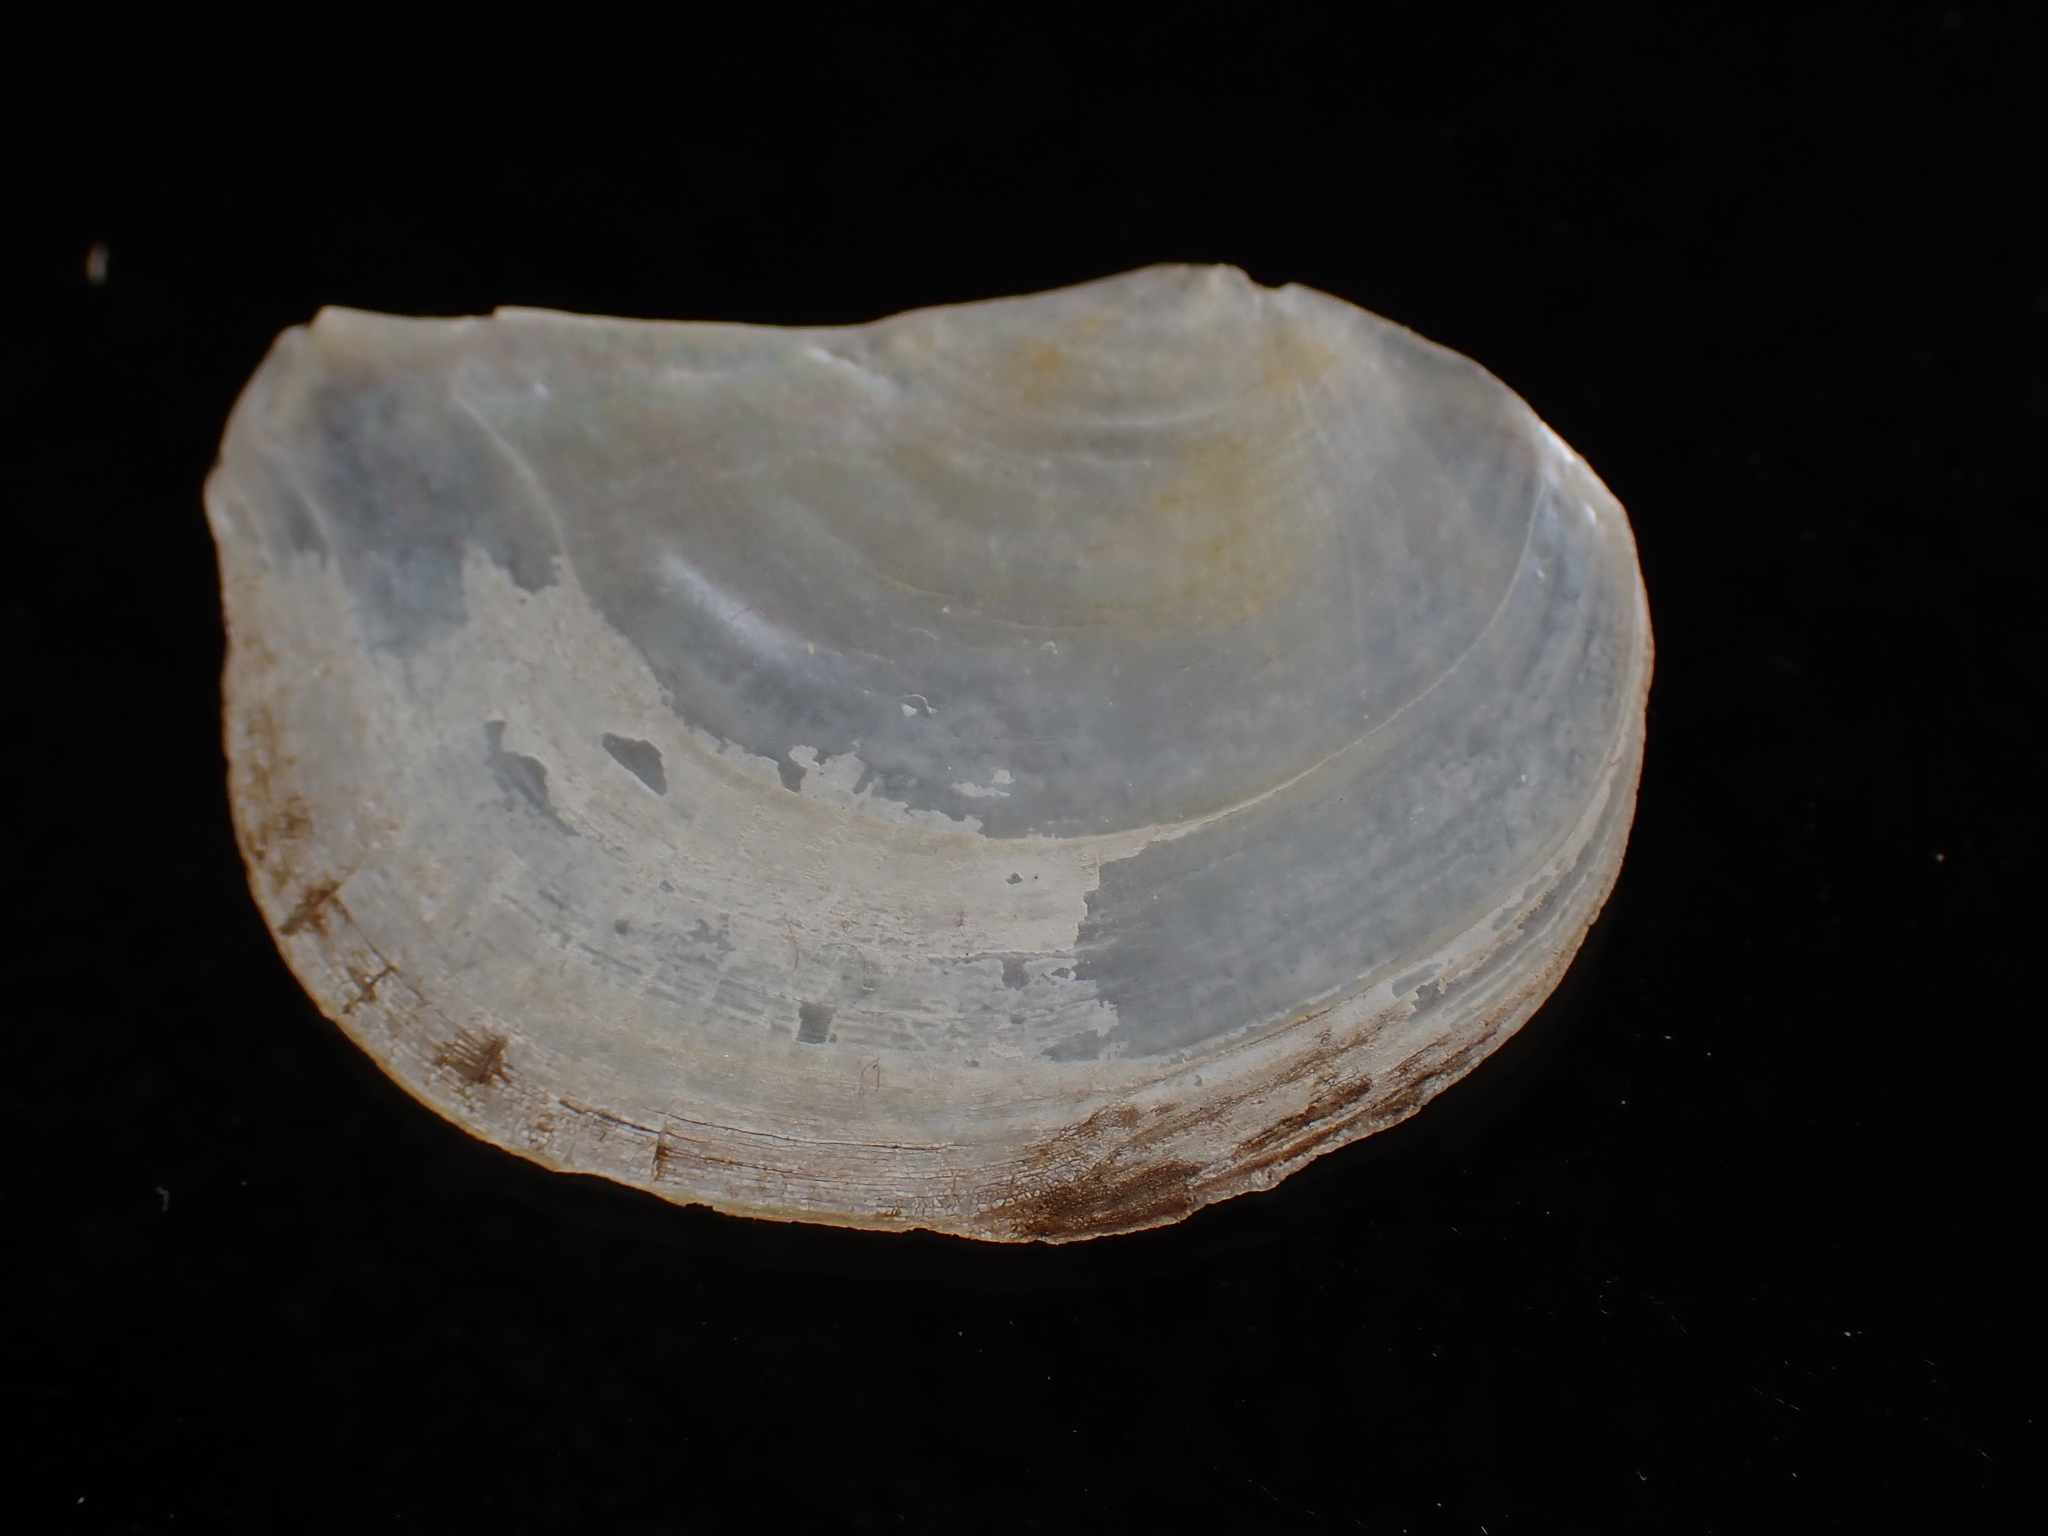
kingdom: Animalia
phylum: Mollusca
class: Bivalvia
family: Pandoridae
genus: Pandora
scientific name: Pandora gouldiana
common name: Rounded pandora
